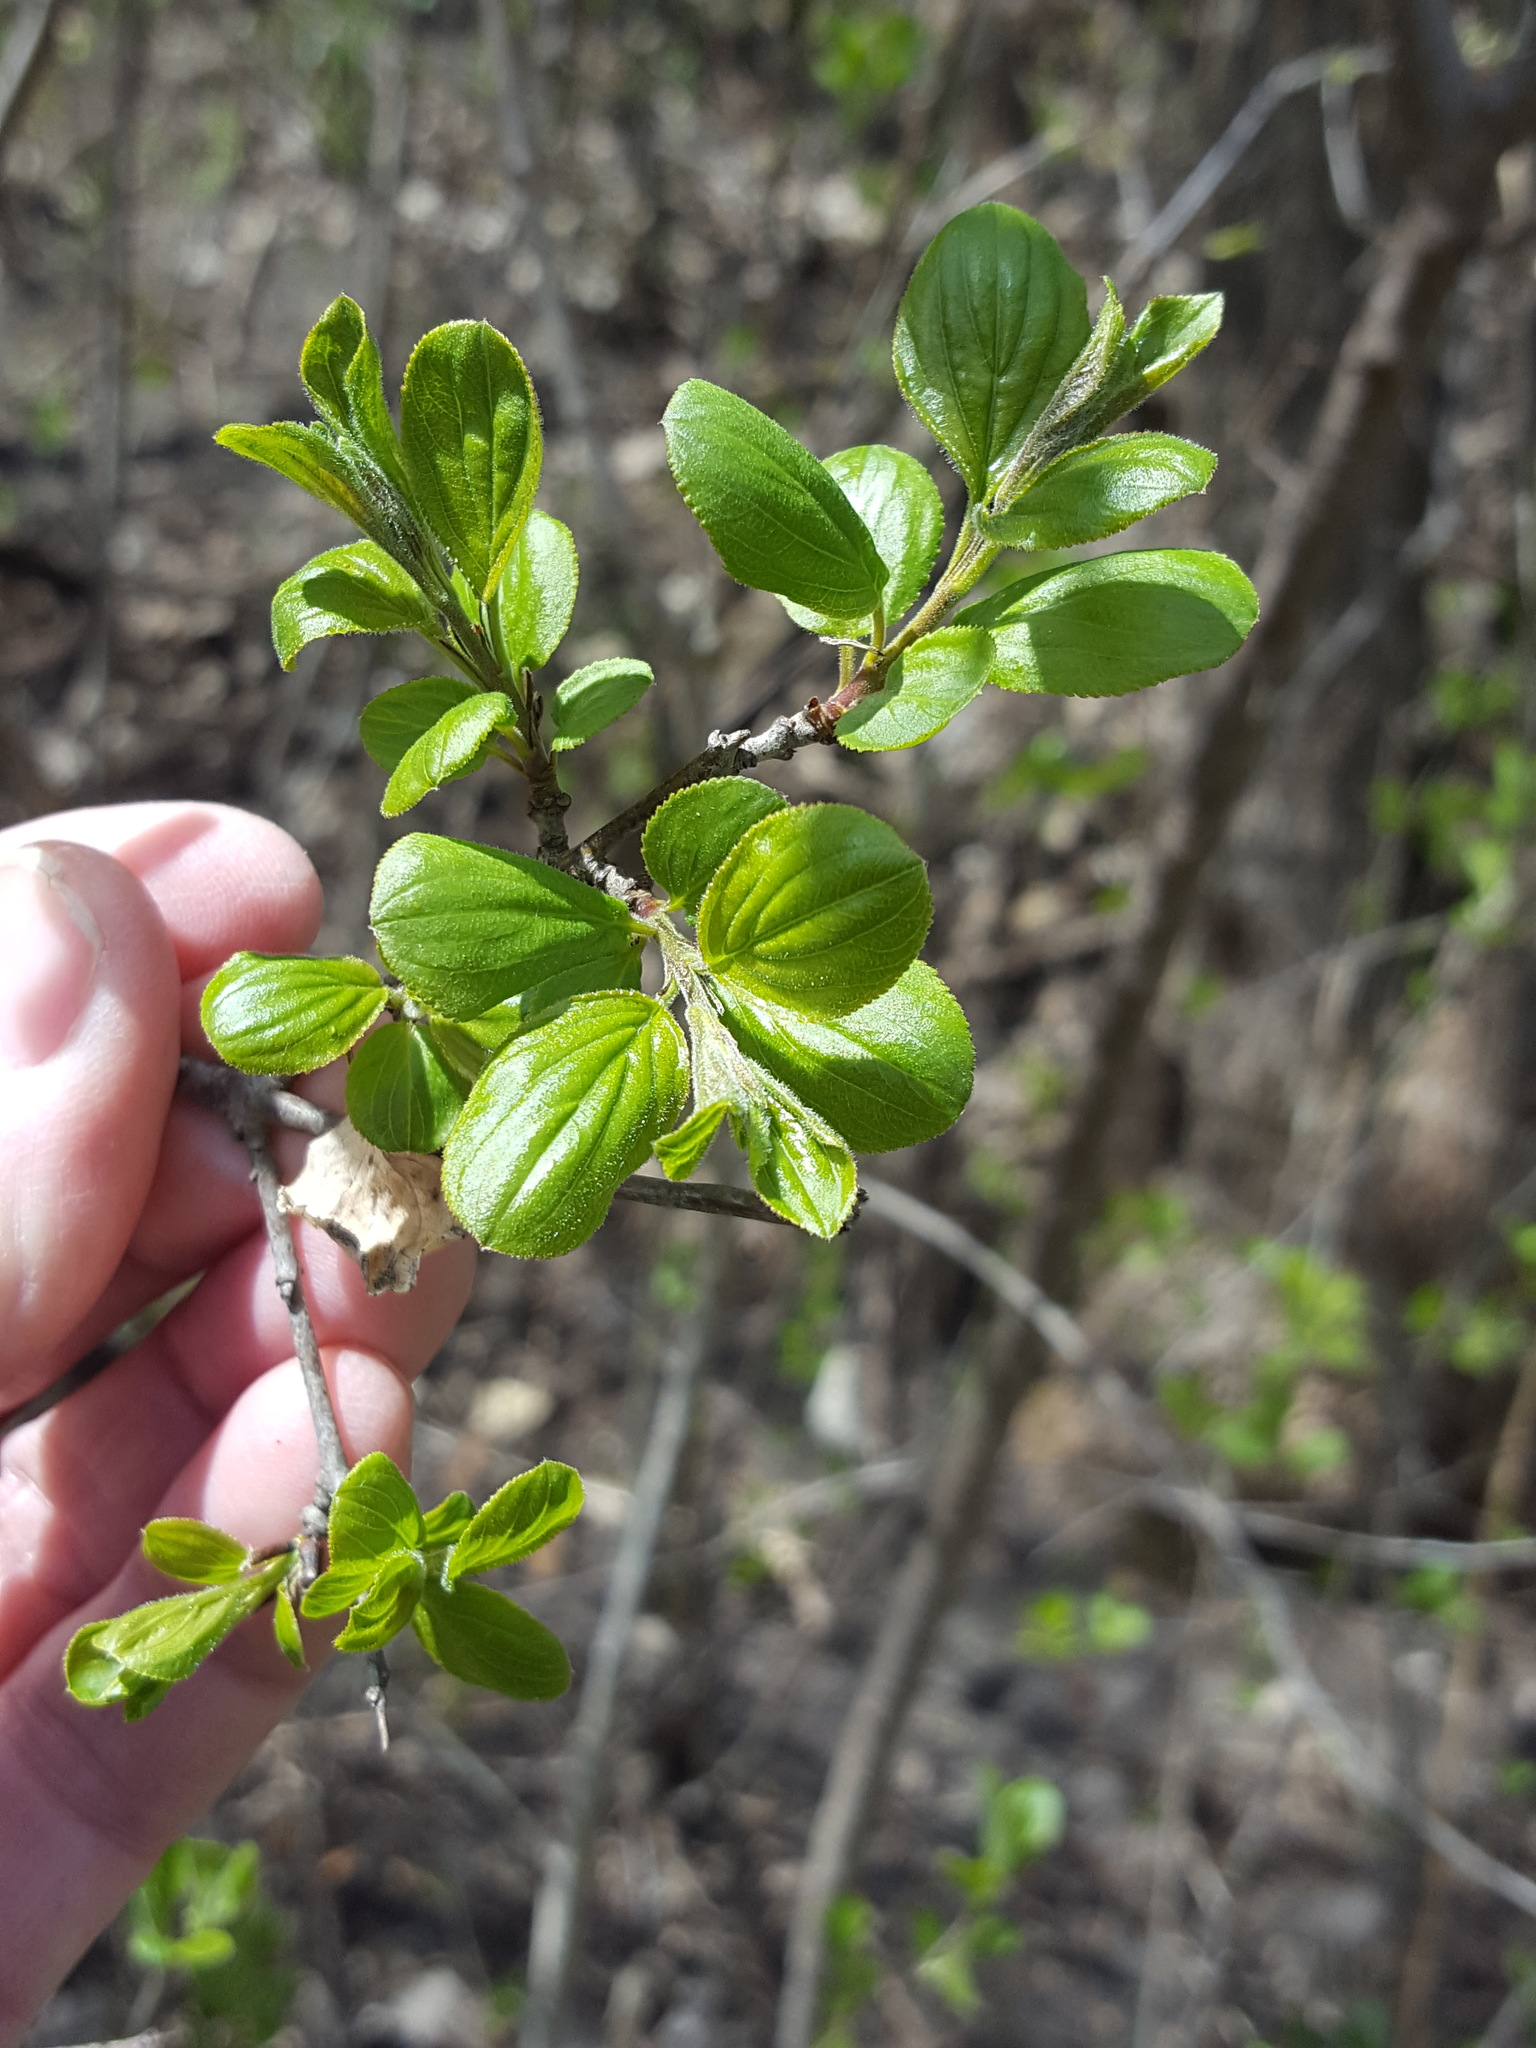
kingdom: Plantae
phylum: Tracheophyta
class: Magnoliopsida
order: Rosales
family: Rhamnaceae
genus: Rhamnus
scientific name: Rhamnus cathartica
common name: Common buckthorn
